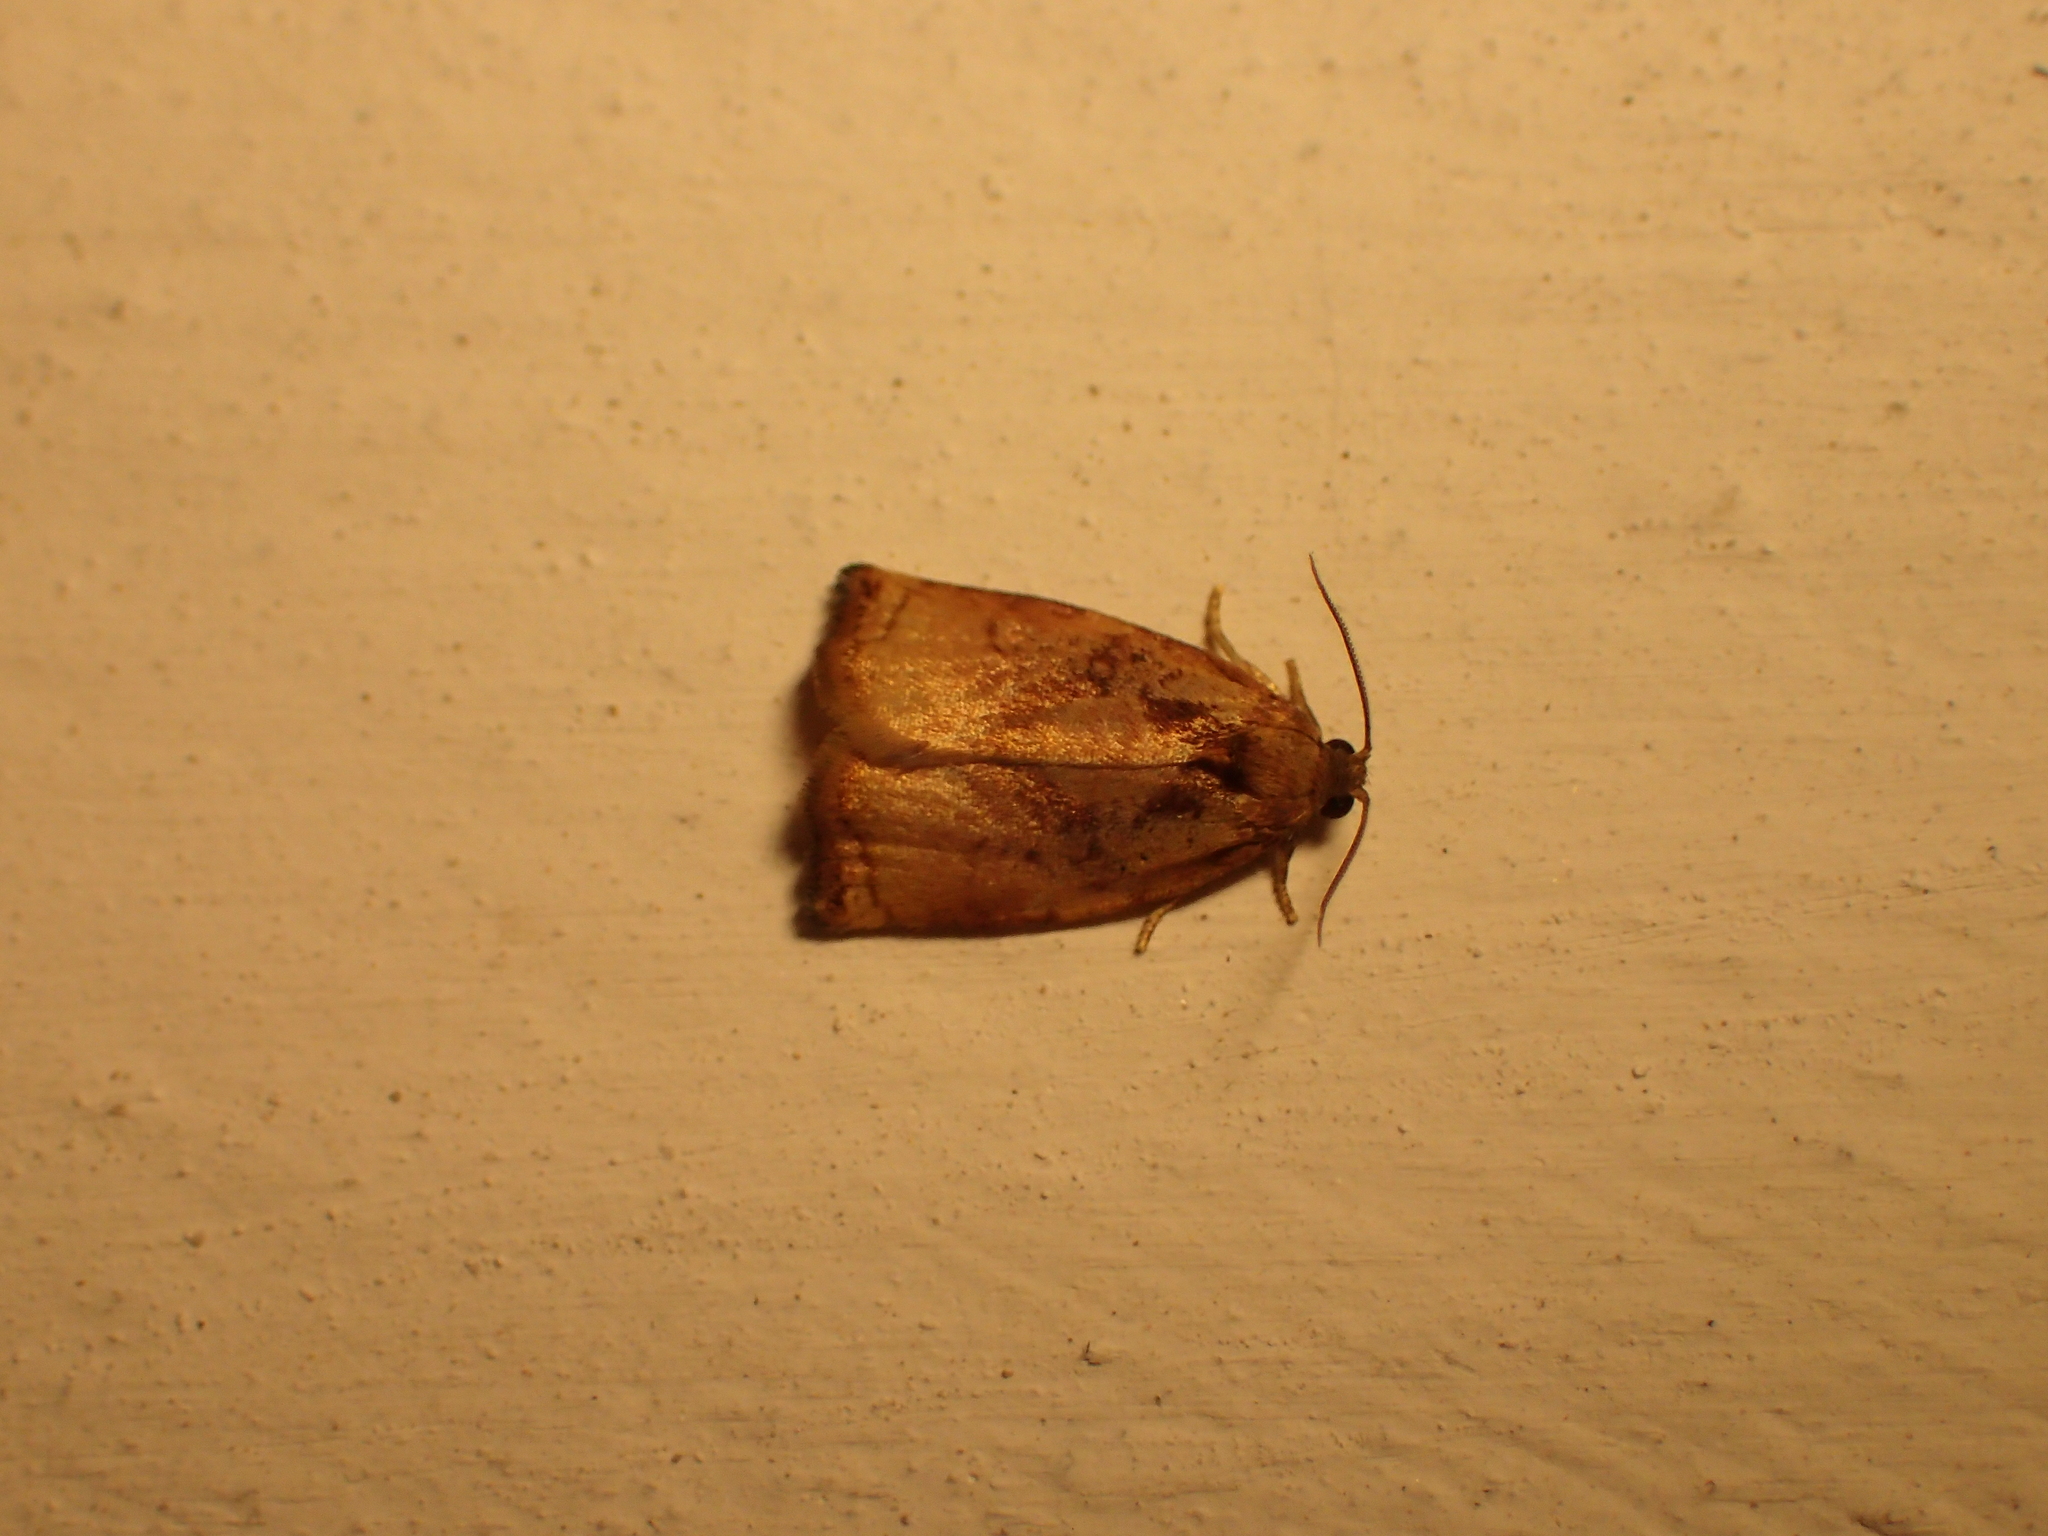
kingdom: Animalia
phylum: Arthropoda
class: Insecta
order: Lepidoptera
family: Tortricidae
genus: Archips
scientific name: Archips podana
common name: Large fruit-tree tortrix
